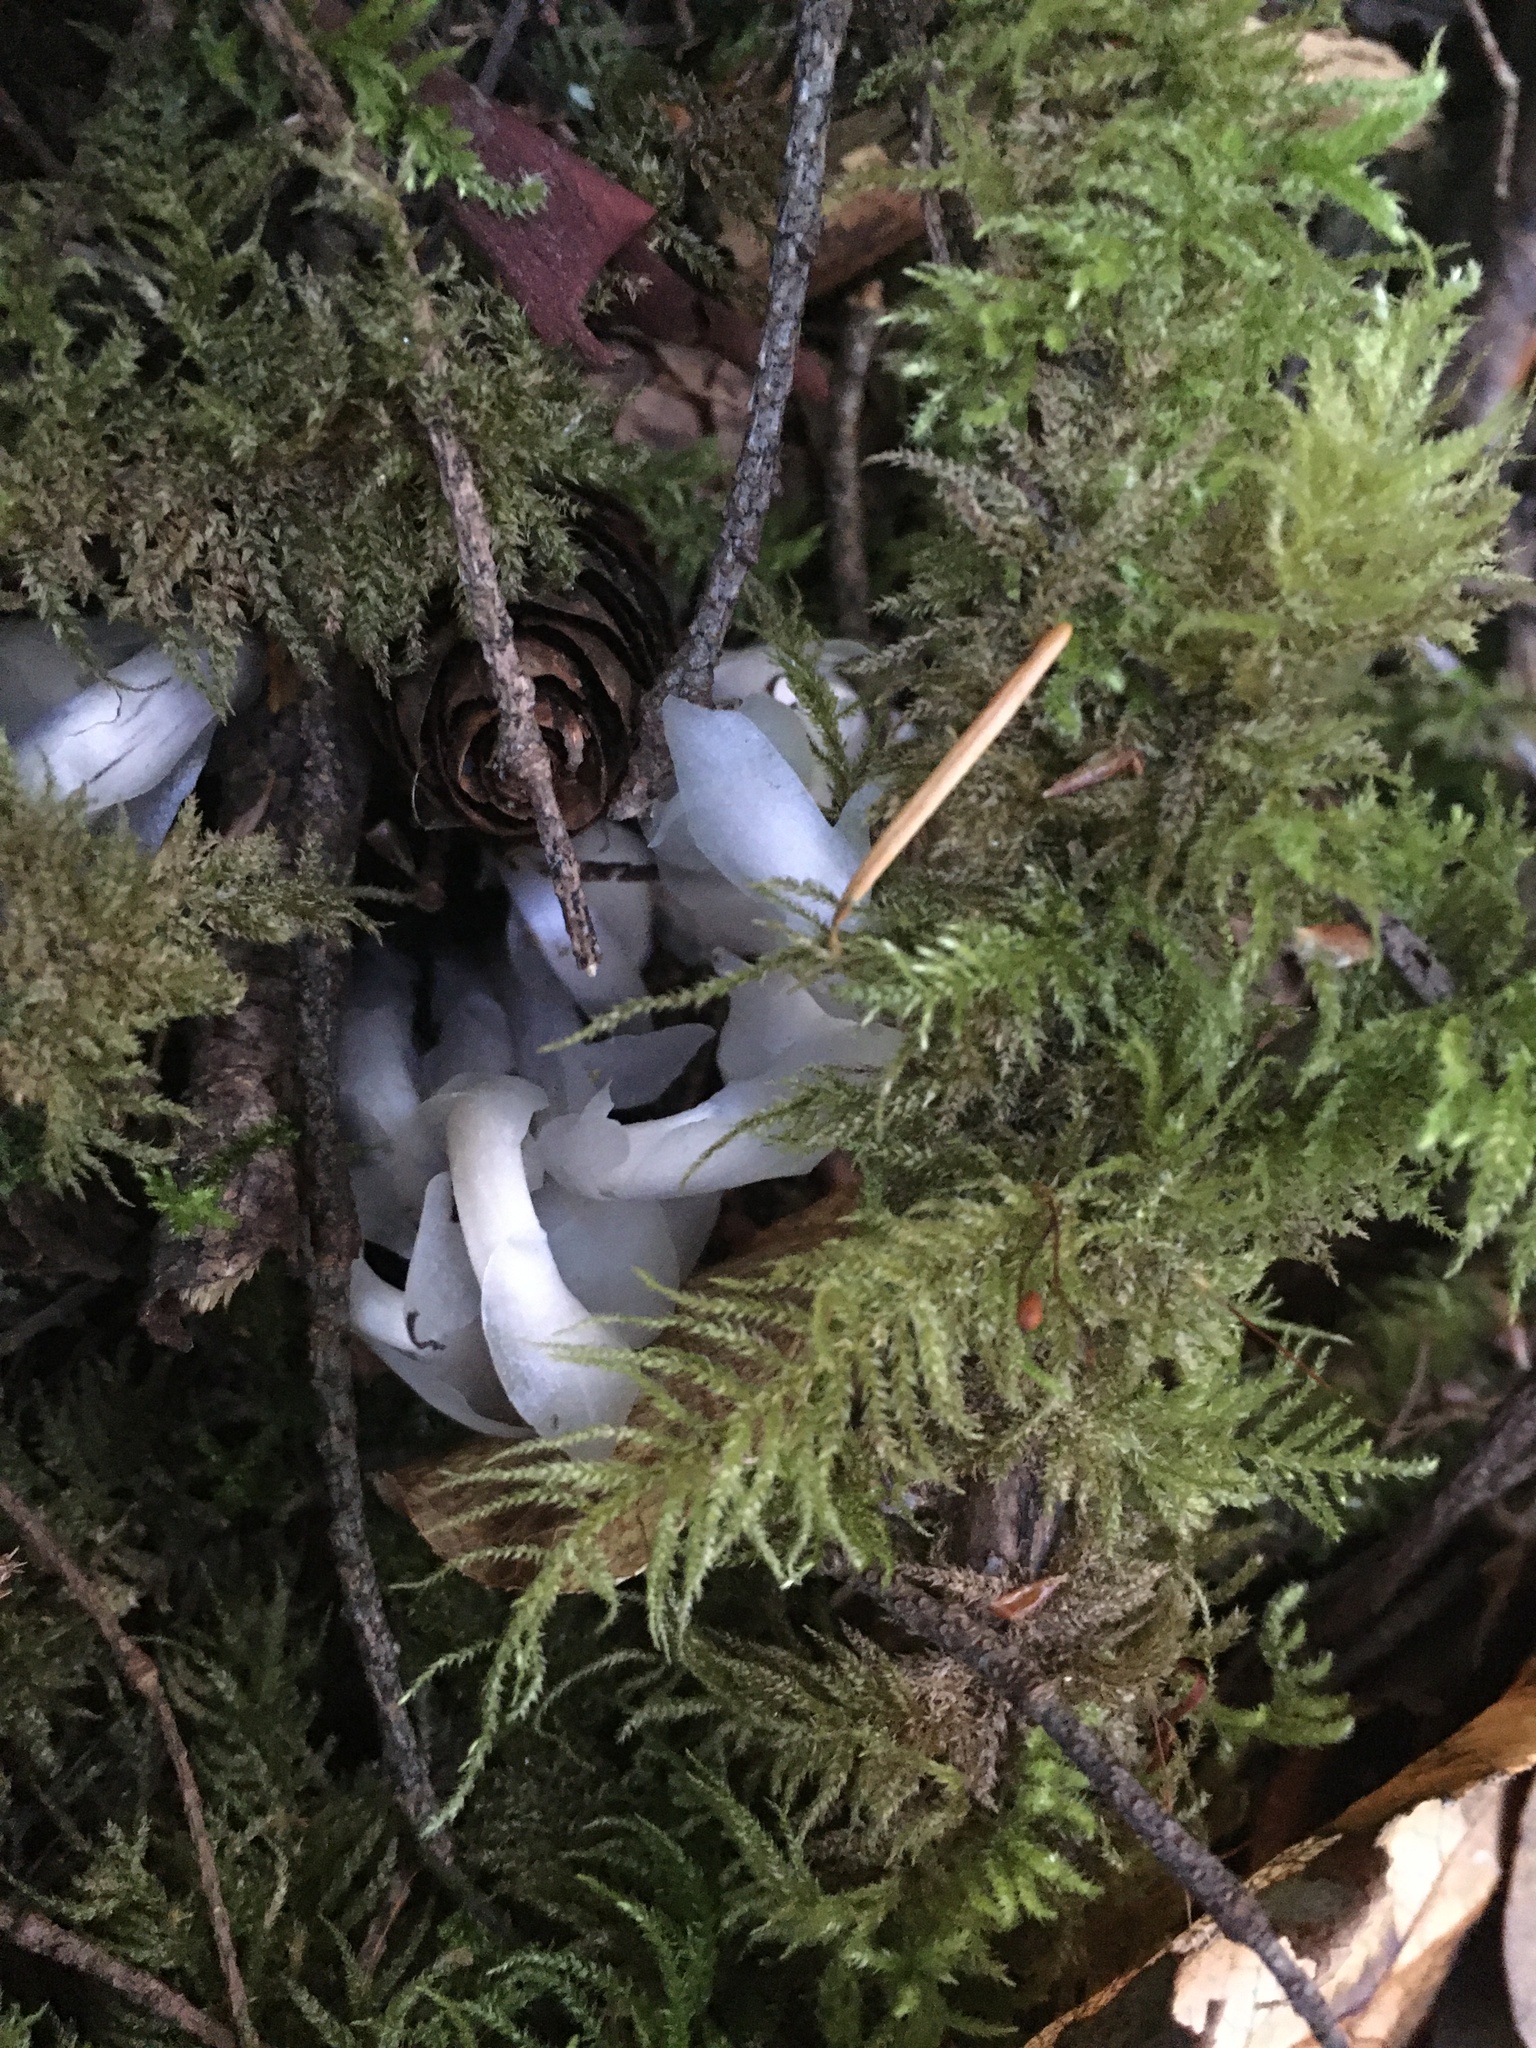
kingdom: Plantae
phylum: Tracheophyta
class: Magnoliopsida
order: Ericales
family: Ericaceae
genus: Monotropa
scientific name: Monotropa uniflora
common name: Convulsion root
